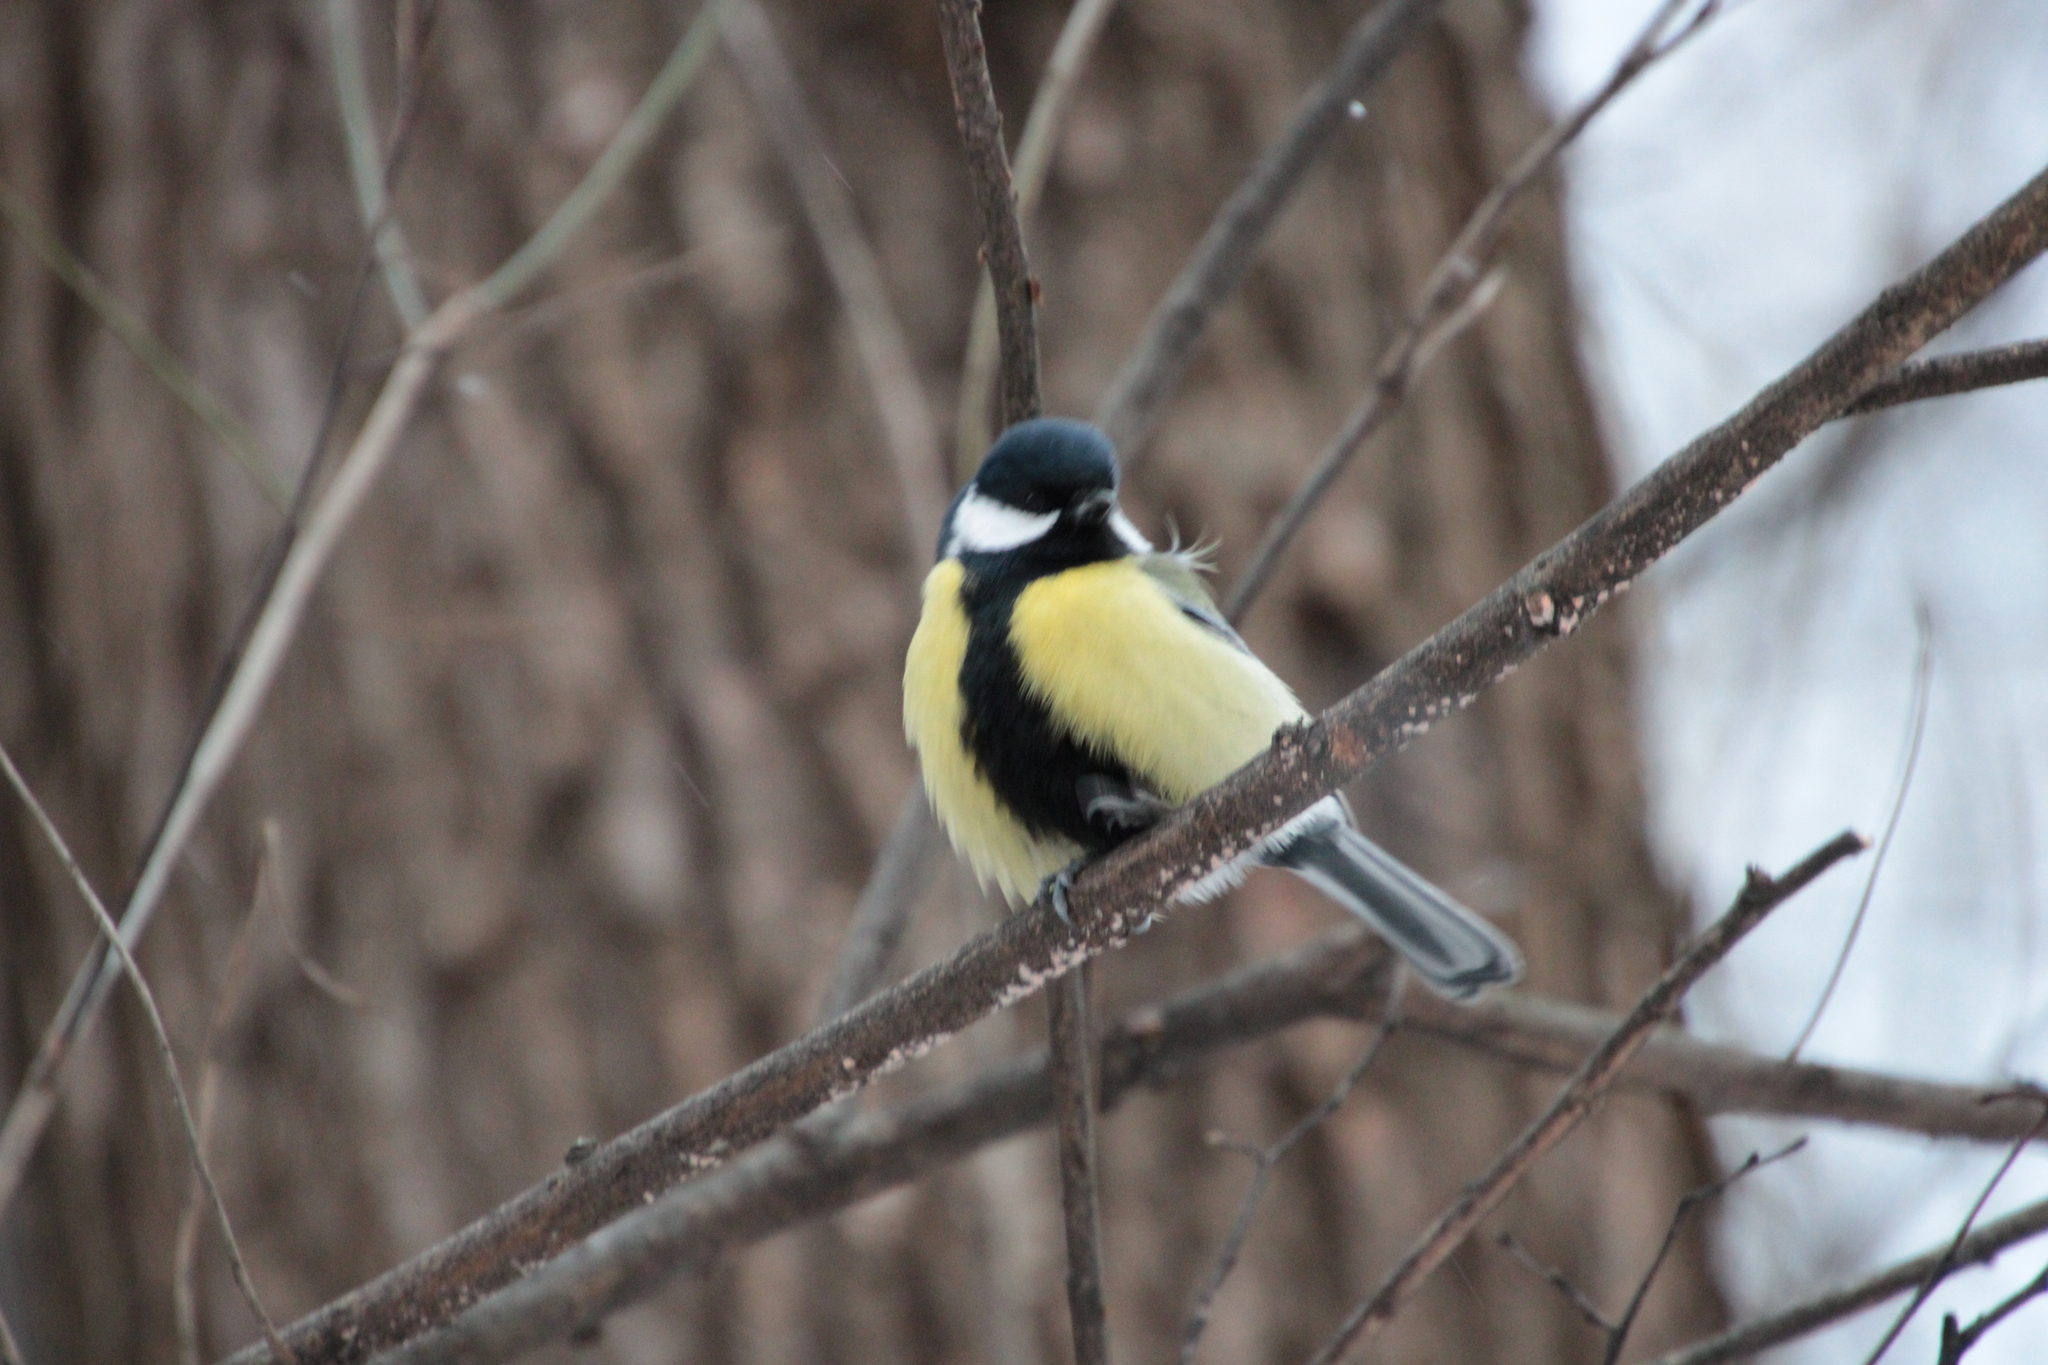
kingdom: Animalia
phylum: Chordata
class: Aves
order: Passeriformes
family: Paridae
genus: Parus
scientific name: Parus major
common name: Great tit
